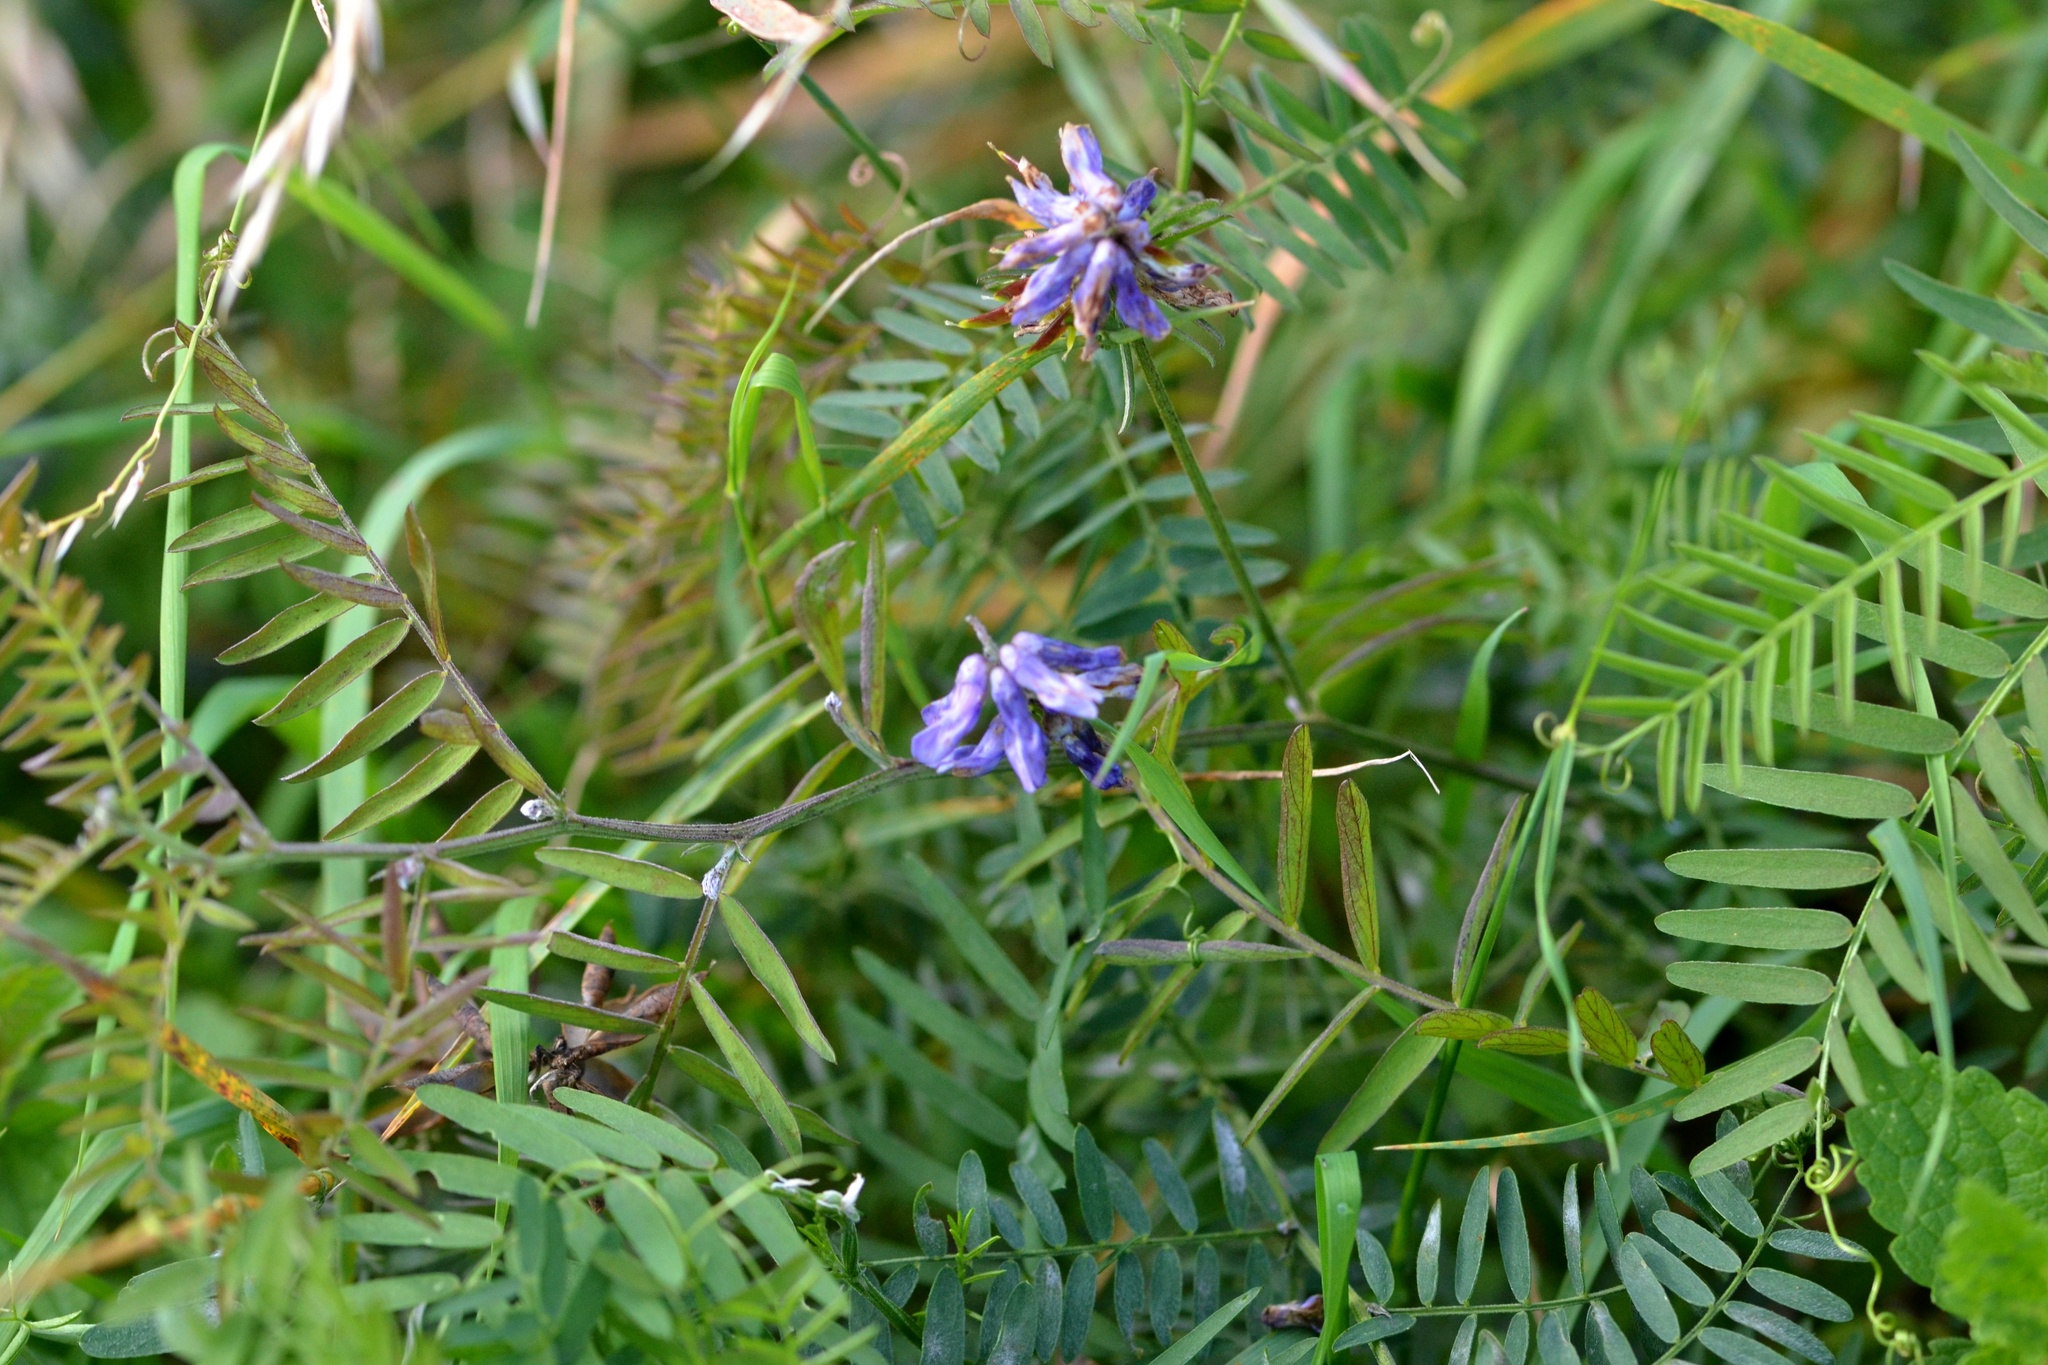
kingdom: Plantae
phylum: Tracheophyta
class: Magnoliopsida
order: Fabales
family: Fabaceae
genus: Vicia
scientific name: Vicia cracca
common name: Bird vetch
